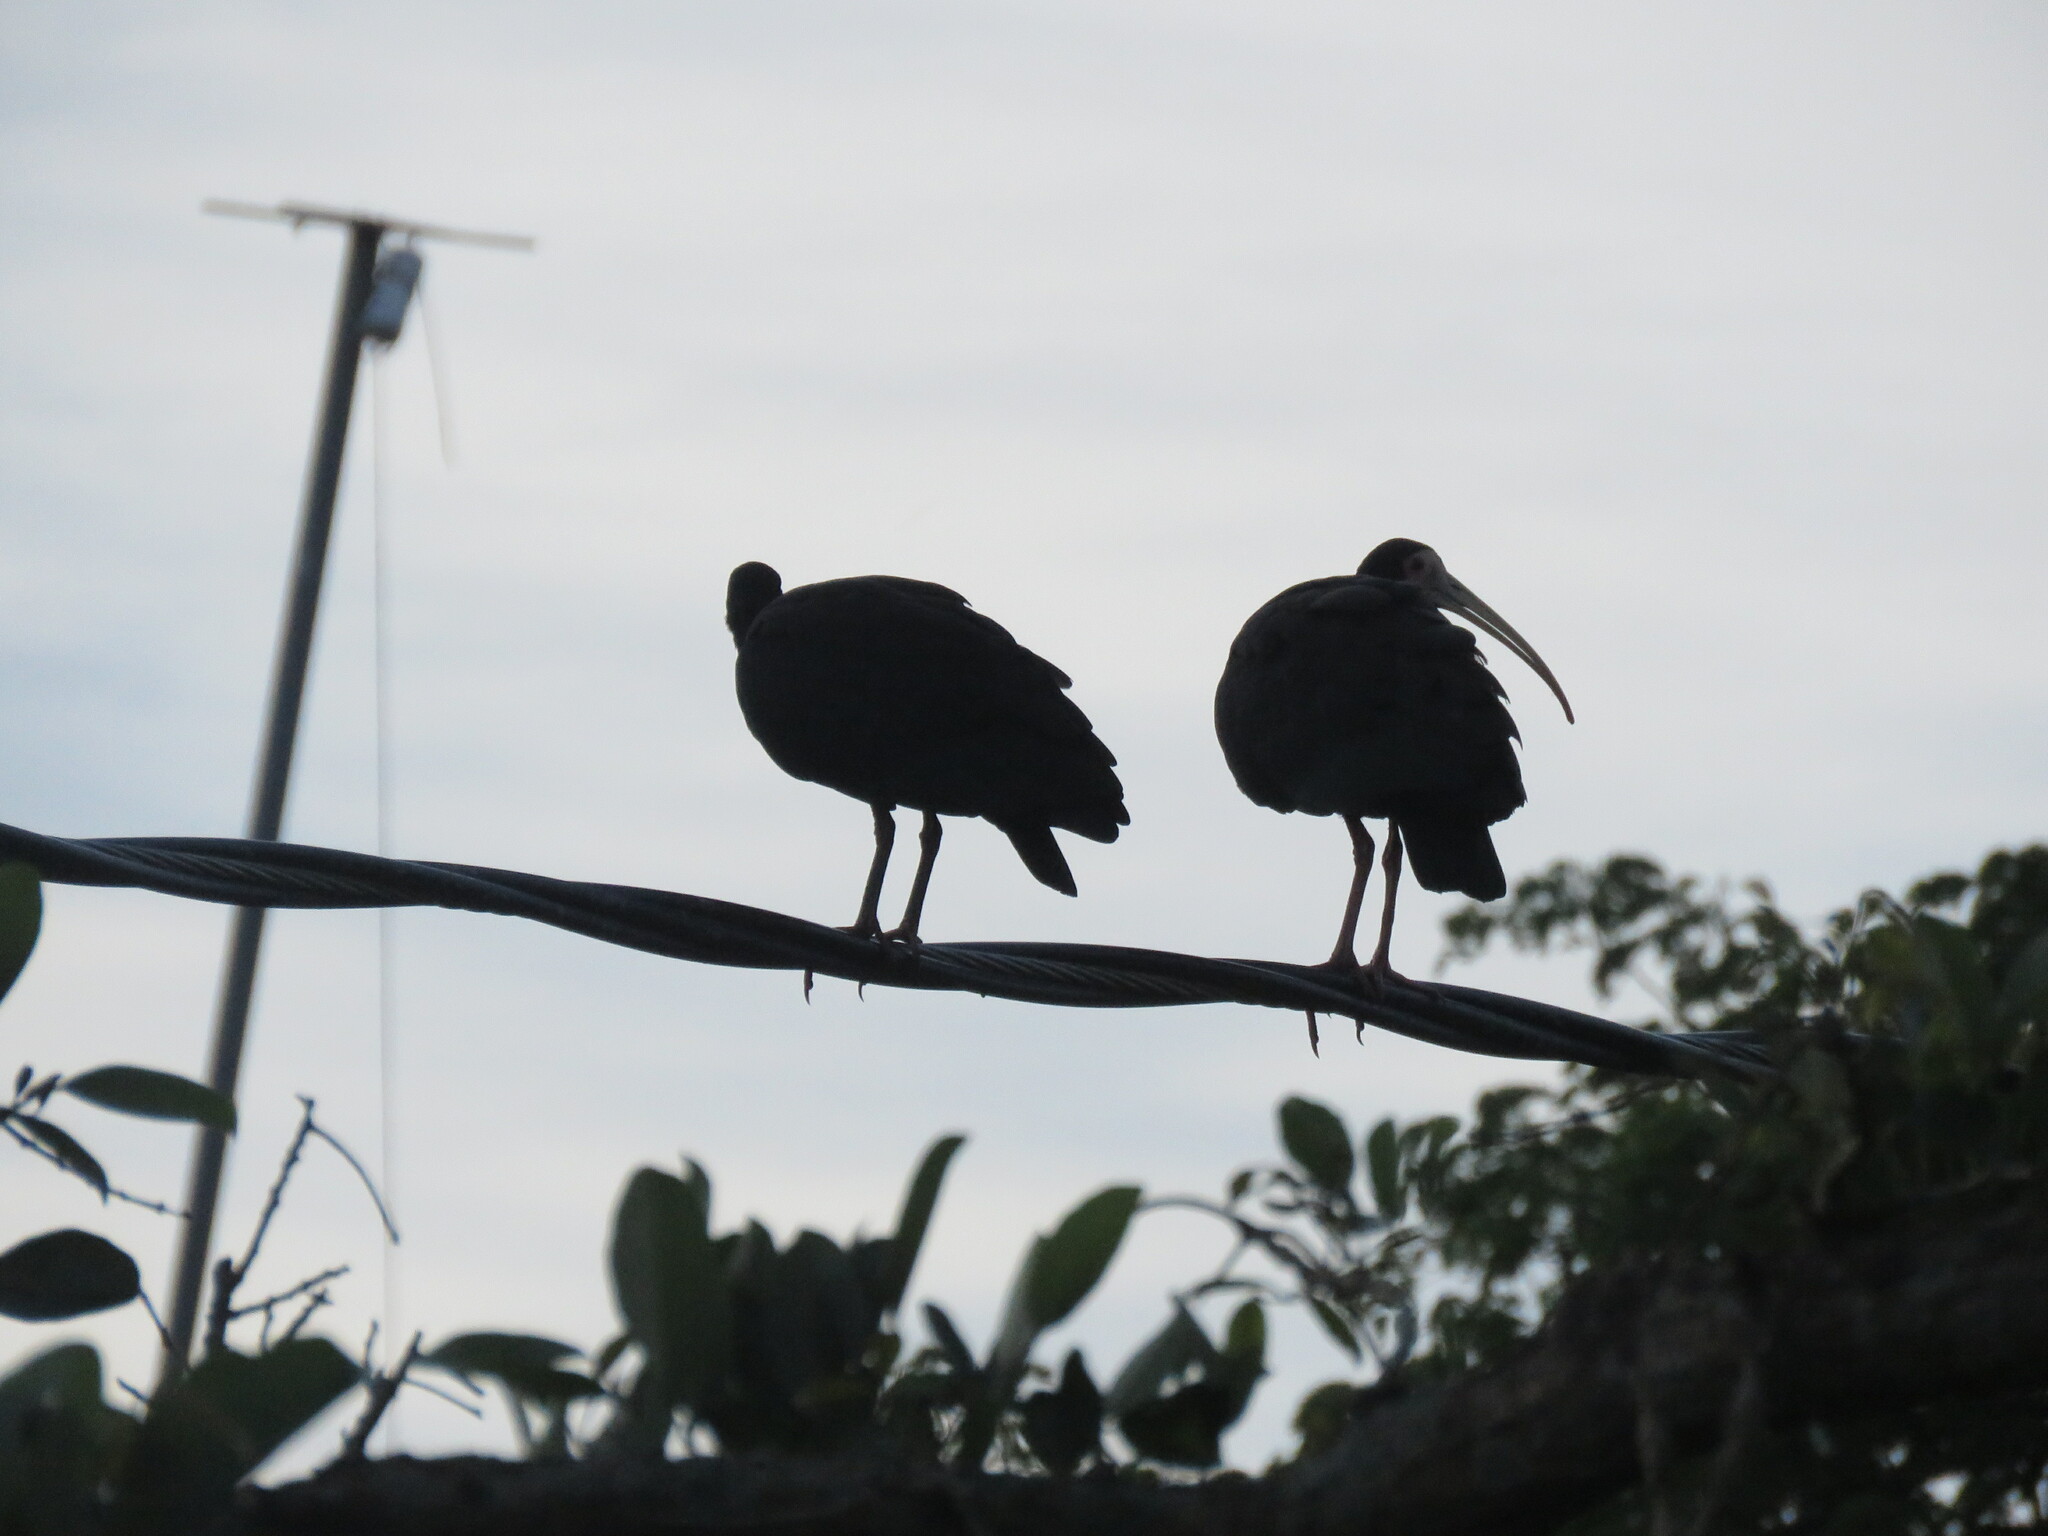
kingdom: Animalia
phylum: Chordata
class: Aves
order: Pelecaniformes
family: Threskiornithidae
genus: Phimosus
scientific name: Phimosus infuscatus
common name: Bare-faced ibis
